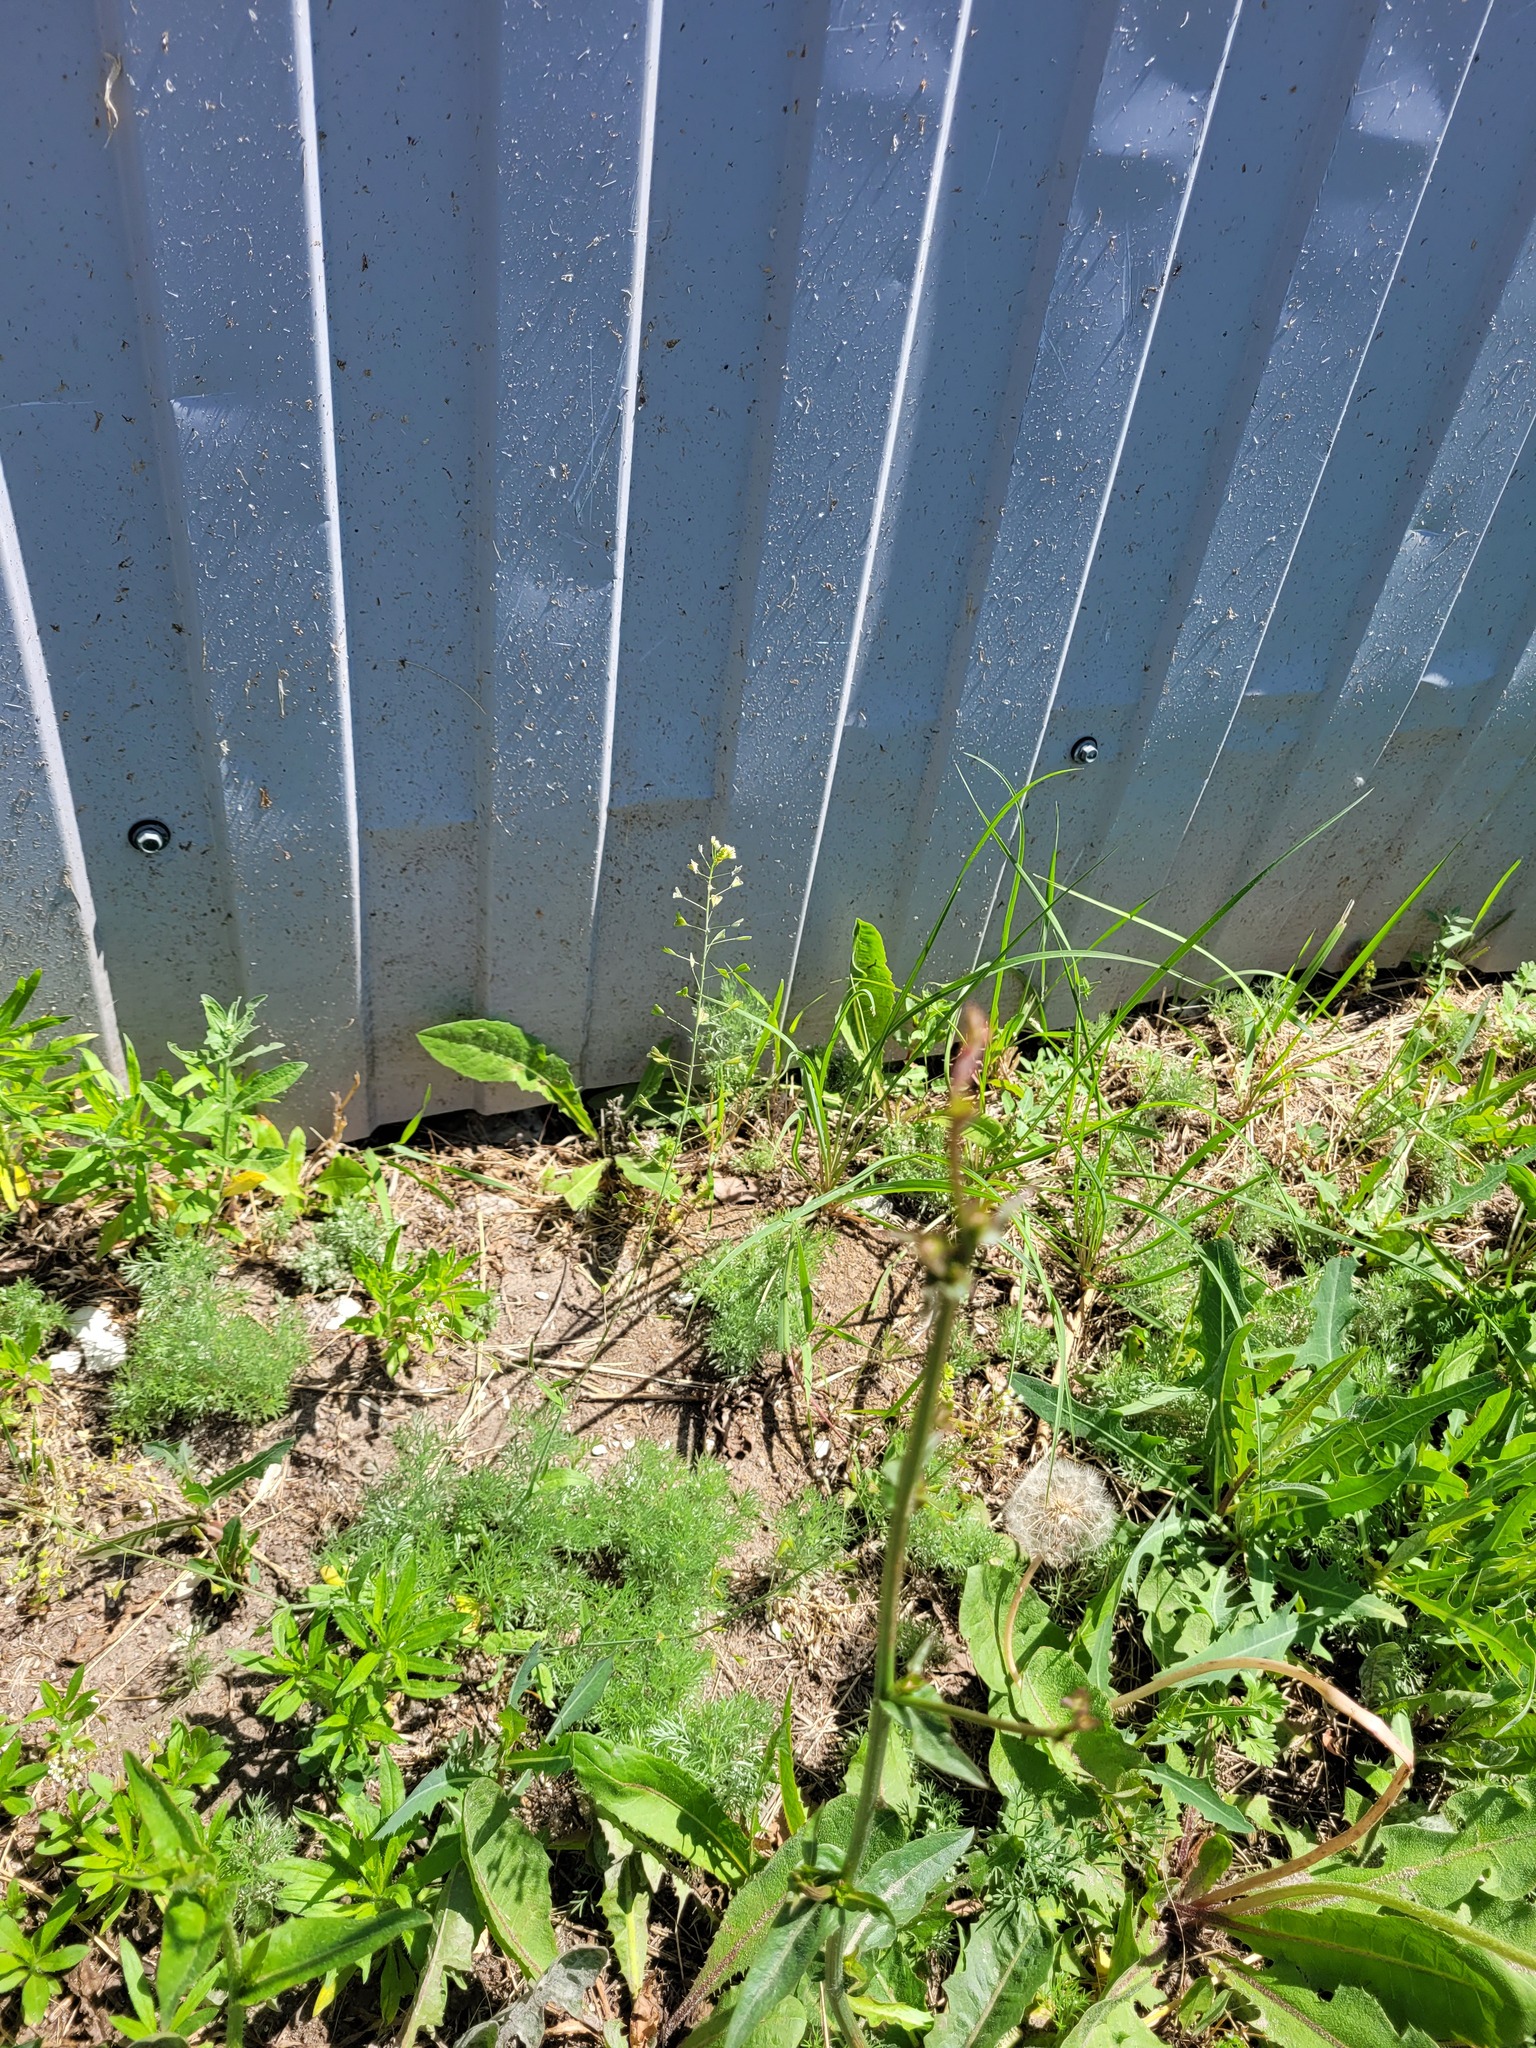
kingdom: Plantae
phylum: Tracheophyta
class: Magnoliopsida
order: Brassicales
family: Brassicaceae
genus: Capsella
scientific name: Capsella bursa-pastoris
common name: Shepherd's purse
